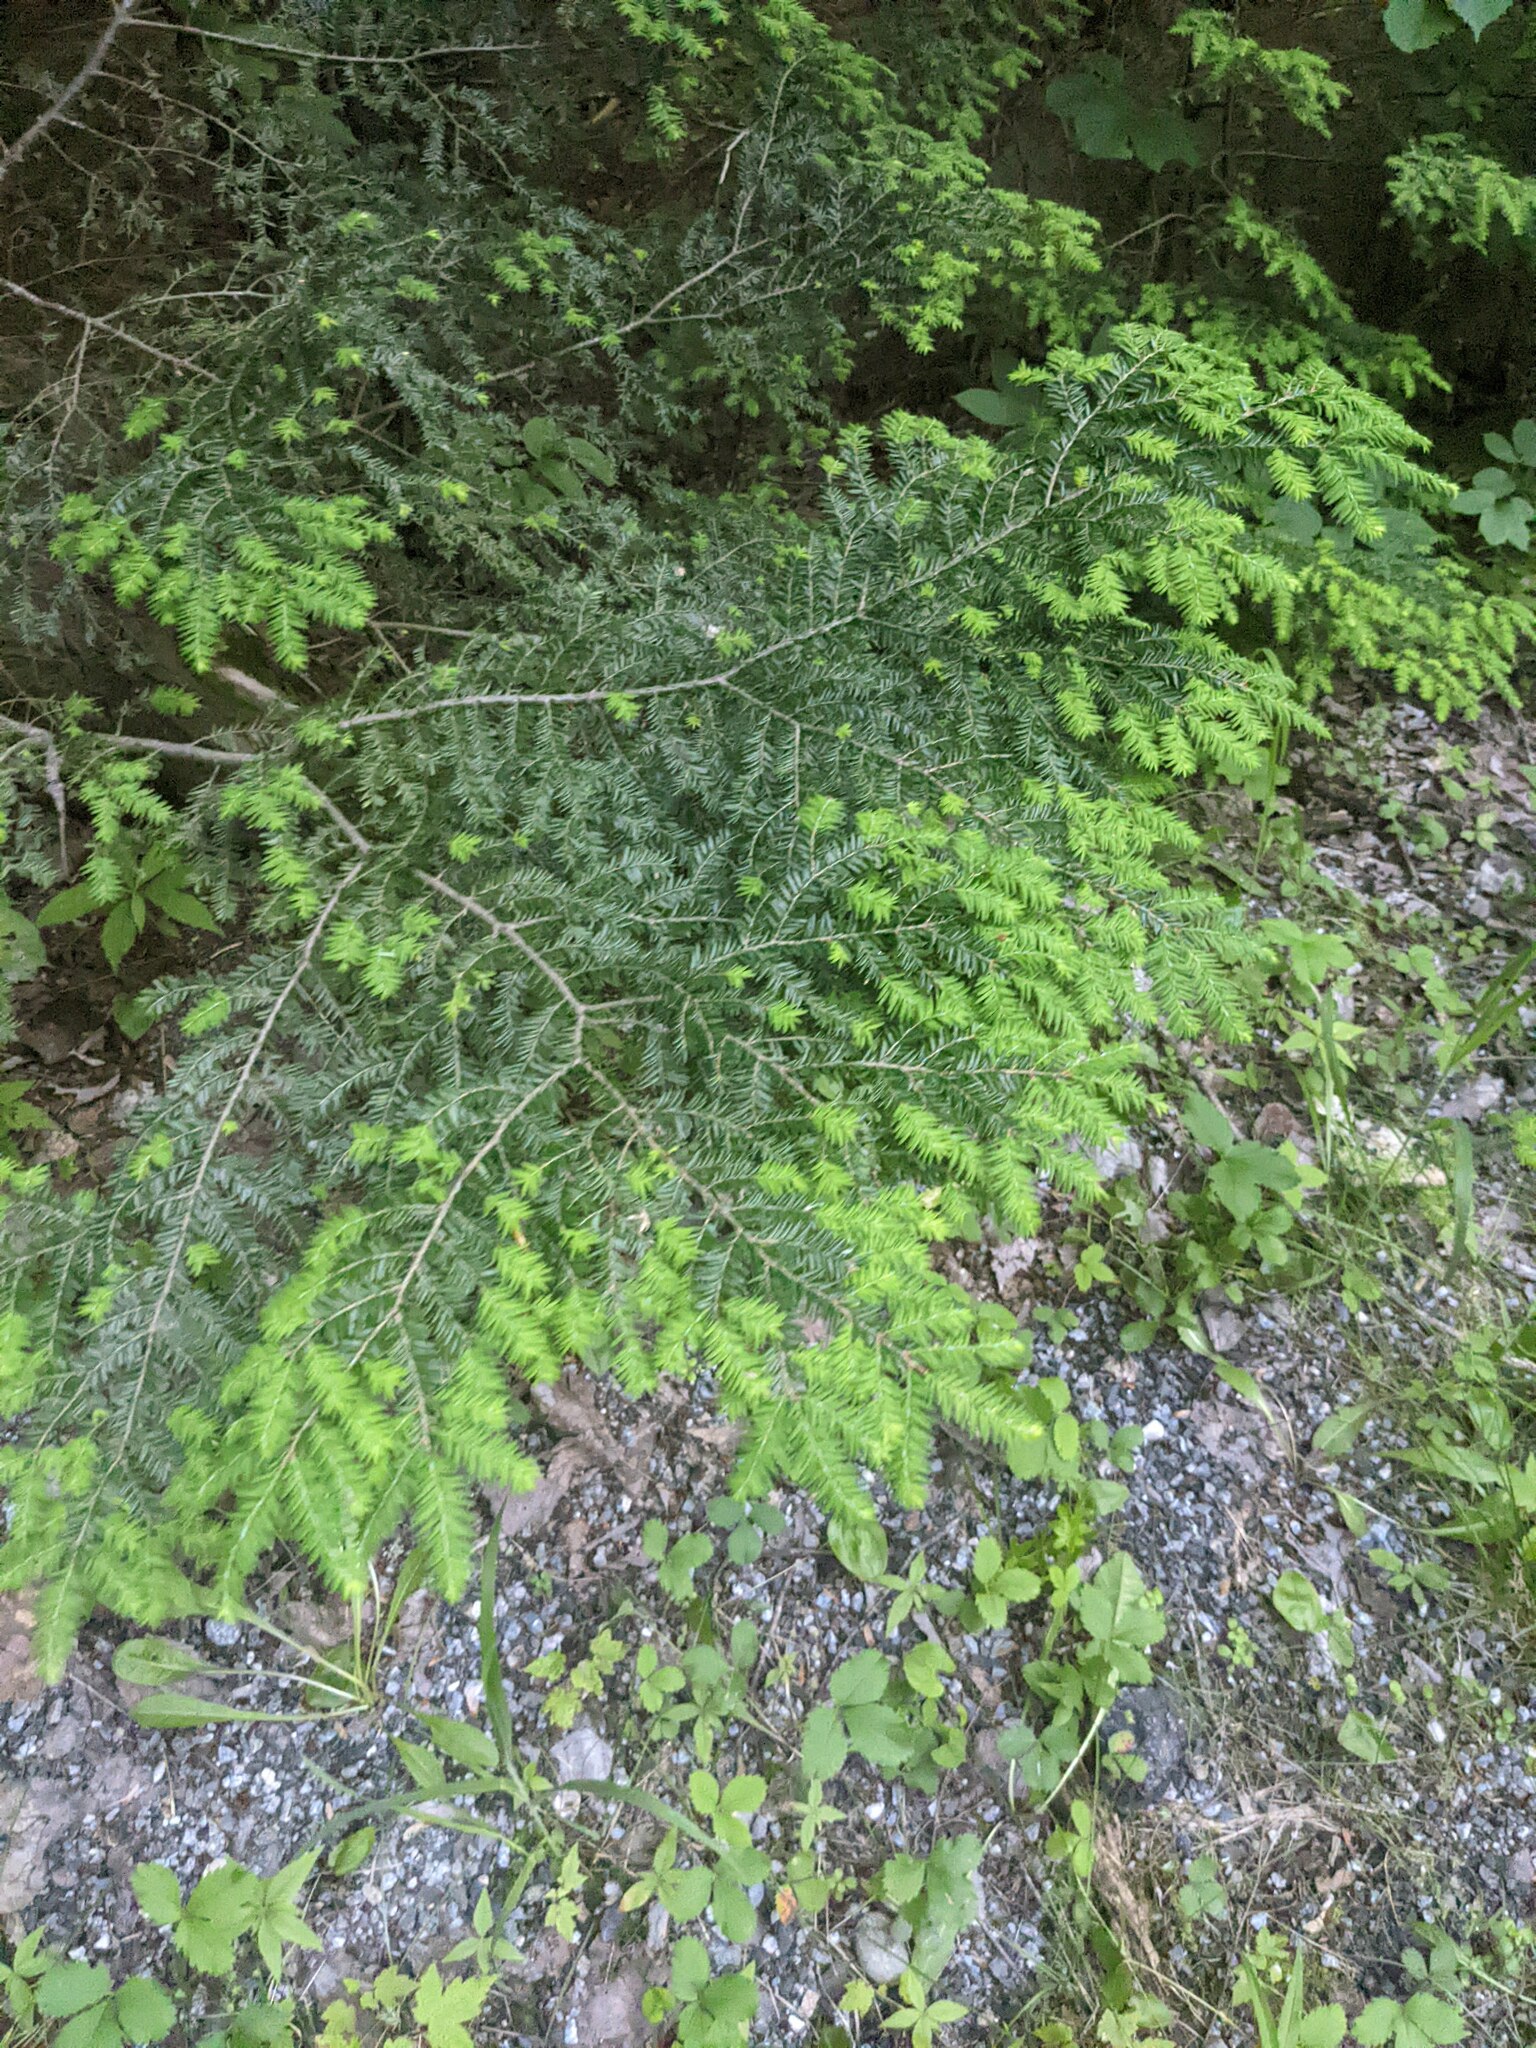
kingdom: Plantae
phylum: Tracheophyta
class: Pinopsida
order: Pinales
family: Pinaceae
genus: Tsuga
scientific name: Tsuga canadensis
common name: Eastern hemlock
